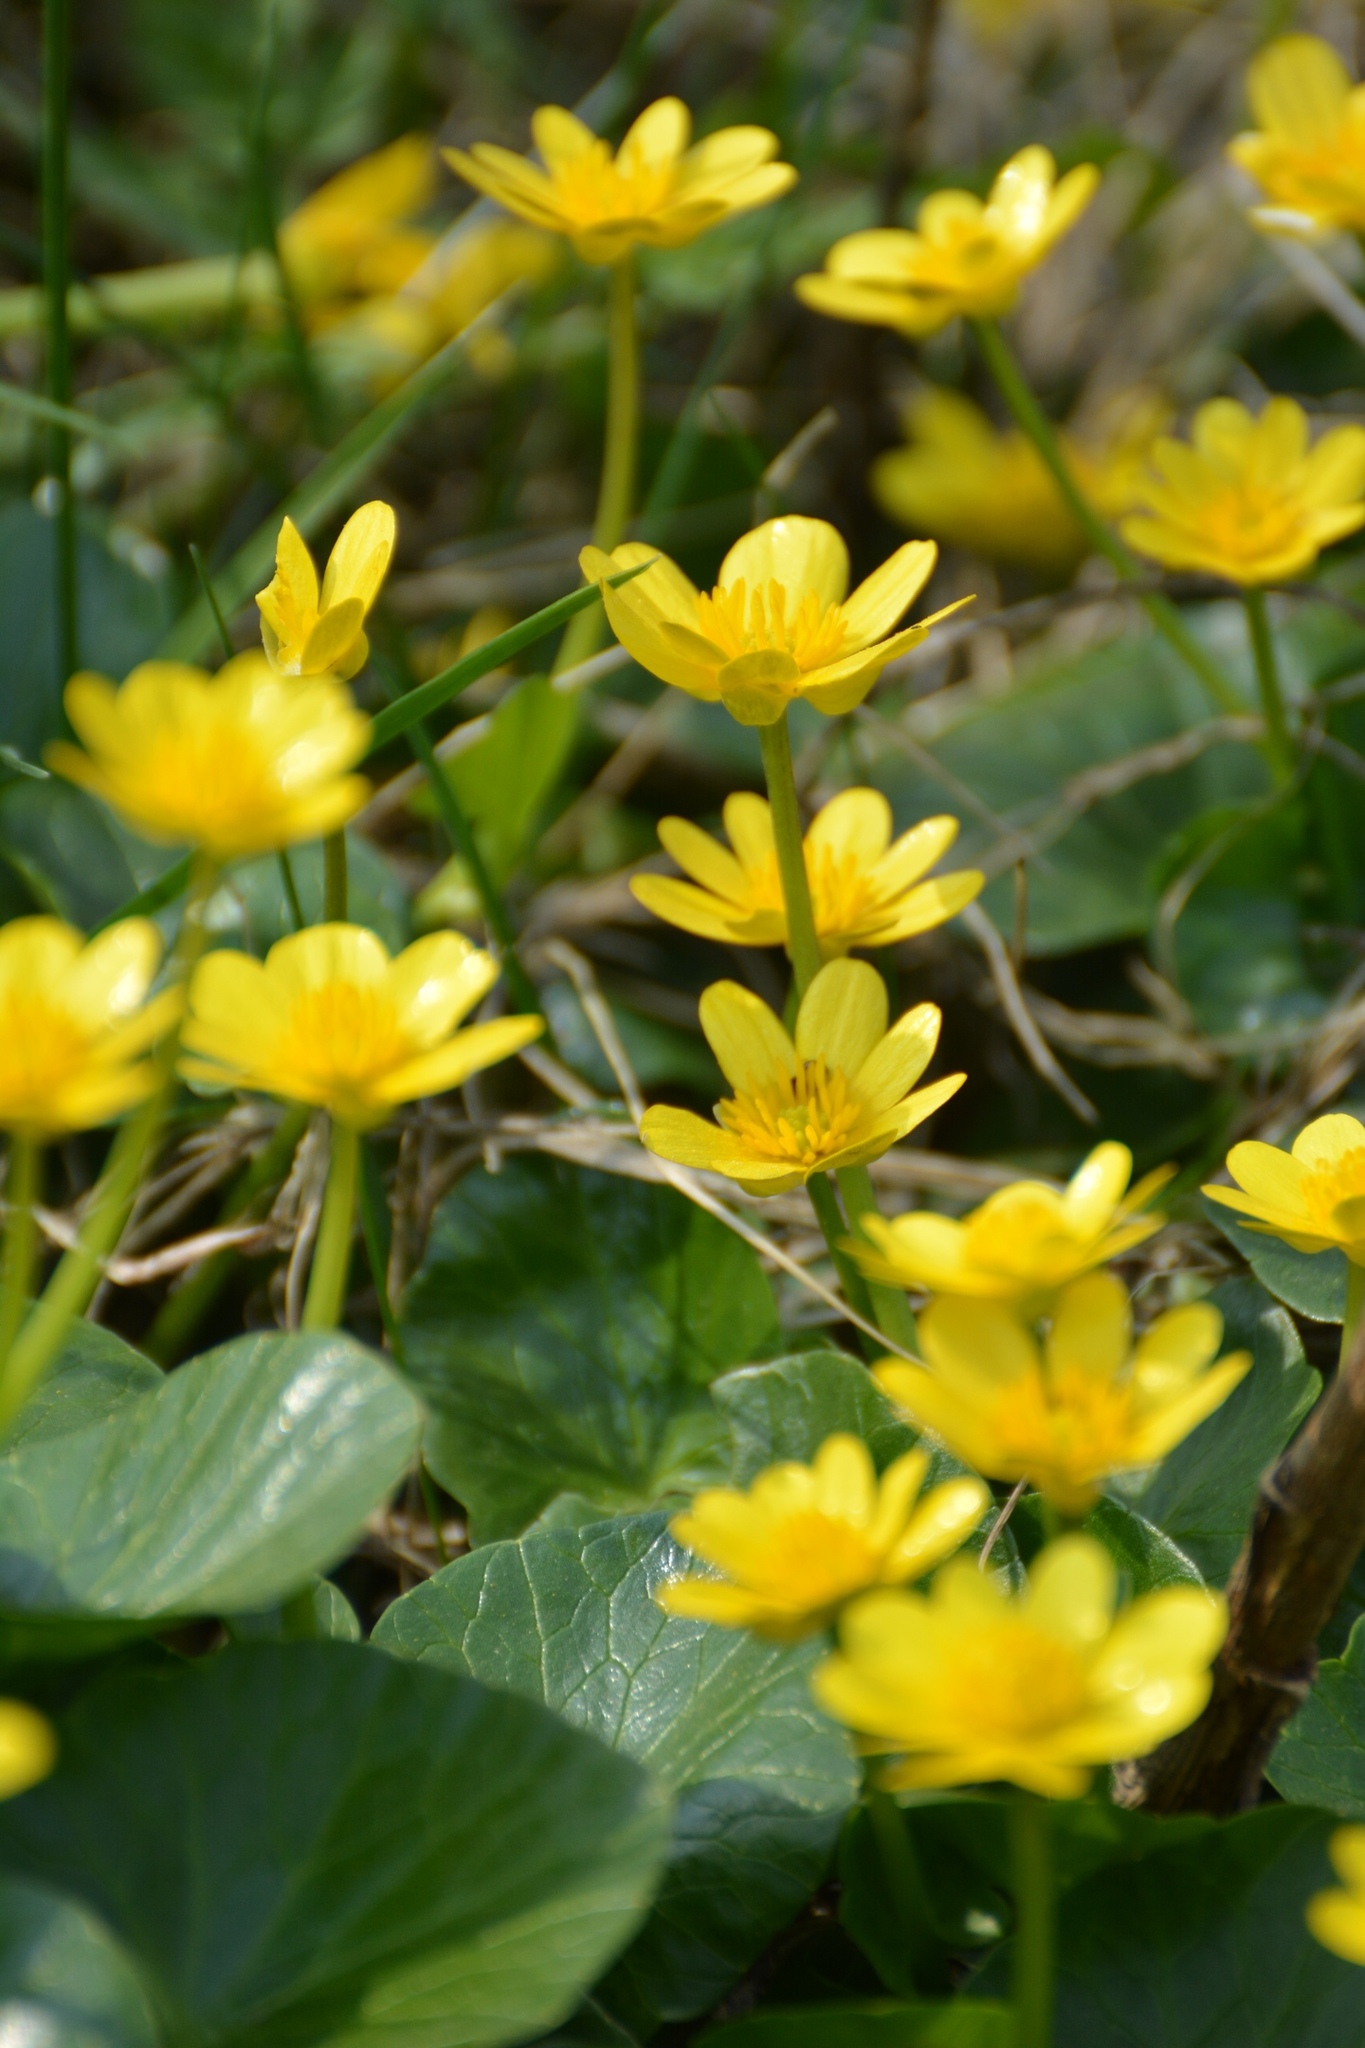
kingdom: Plantae
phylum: Tracheophyta
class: Magnoliopsida
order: Ranunculales
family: Ranunculaceae
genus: Ficaria
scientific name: Ficaria verna
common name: Lesser celandine
